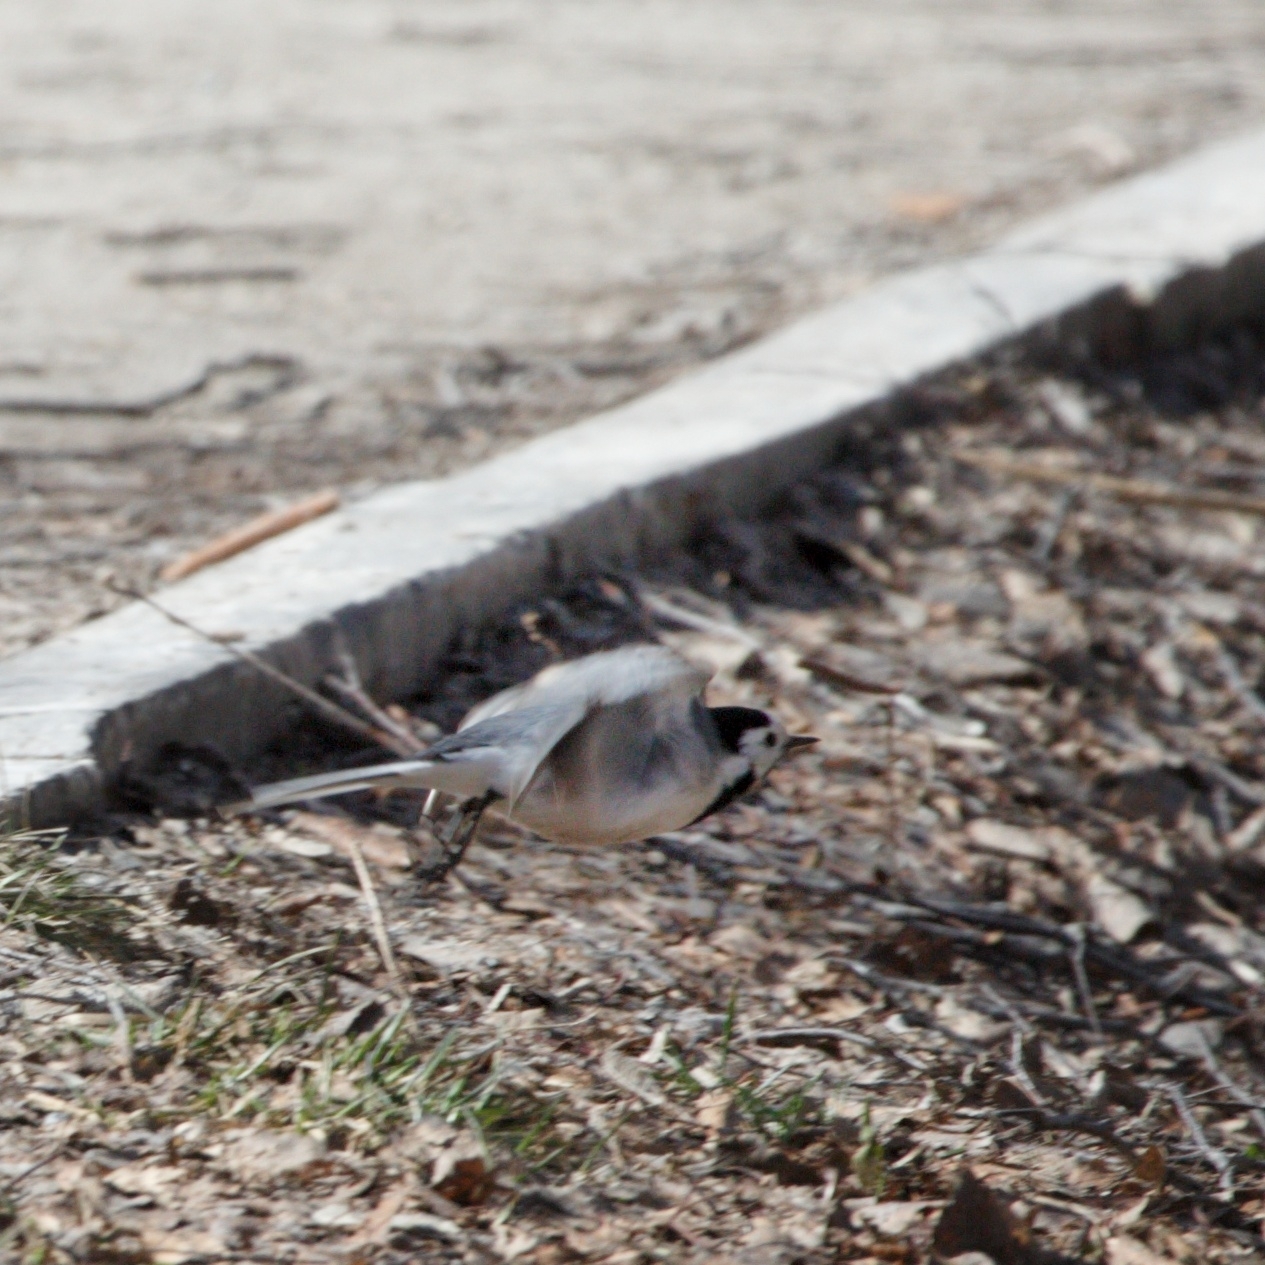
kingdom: Animalia
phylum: Chordata
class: Aves
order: Passeriformes
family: Motacillidae
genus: Motacilla
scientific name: Motacilla alba
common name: White wagtail
